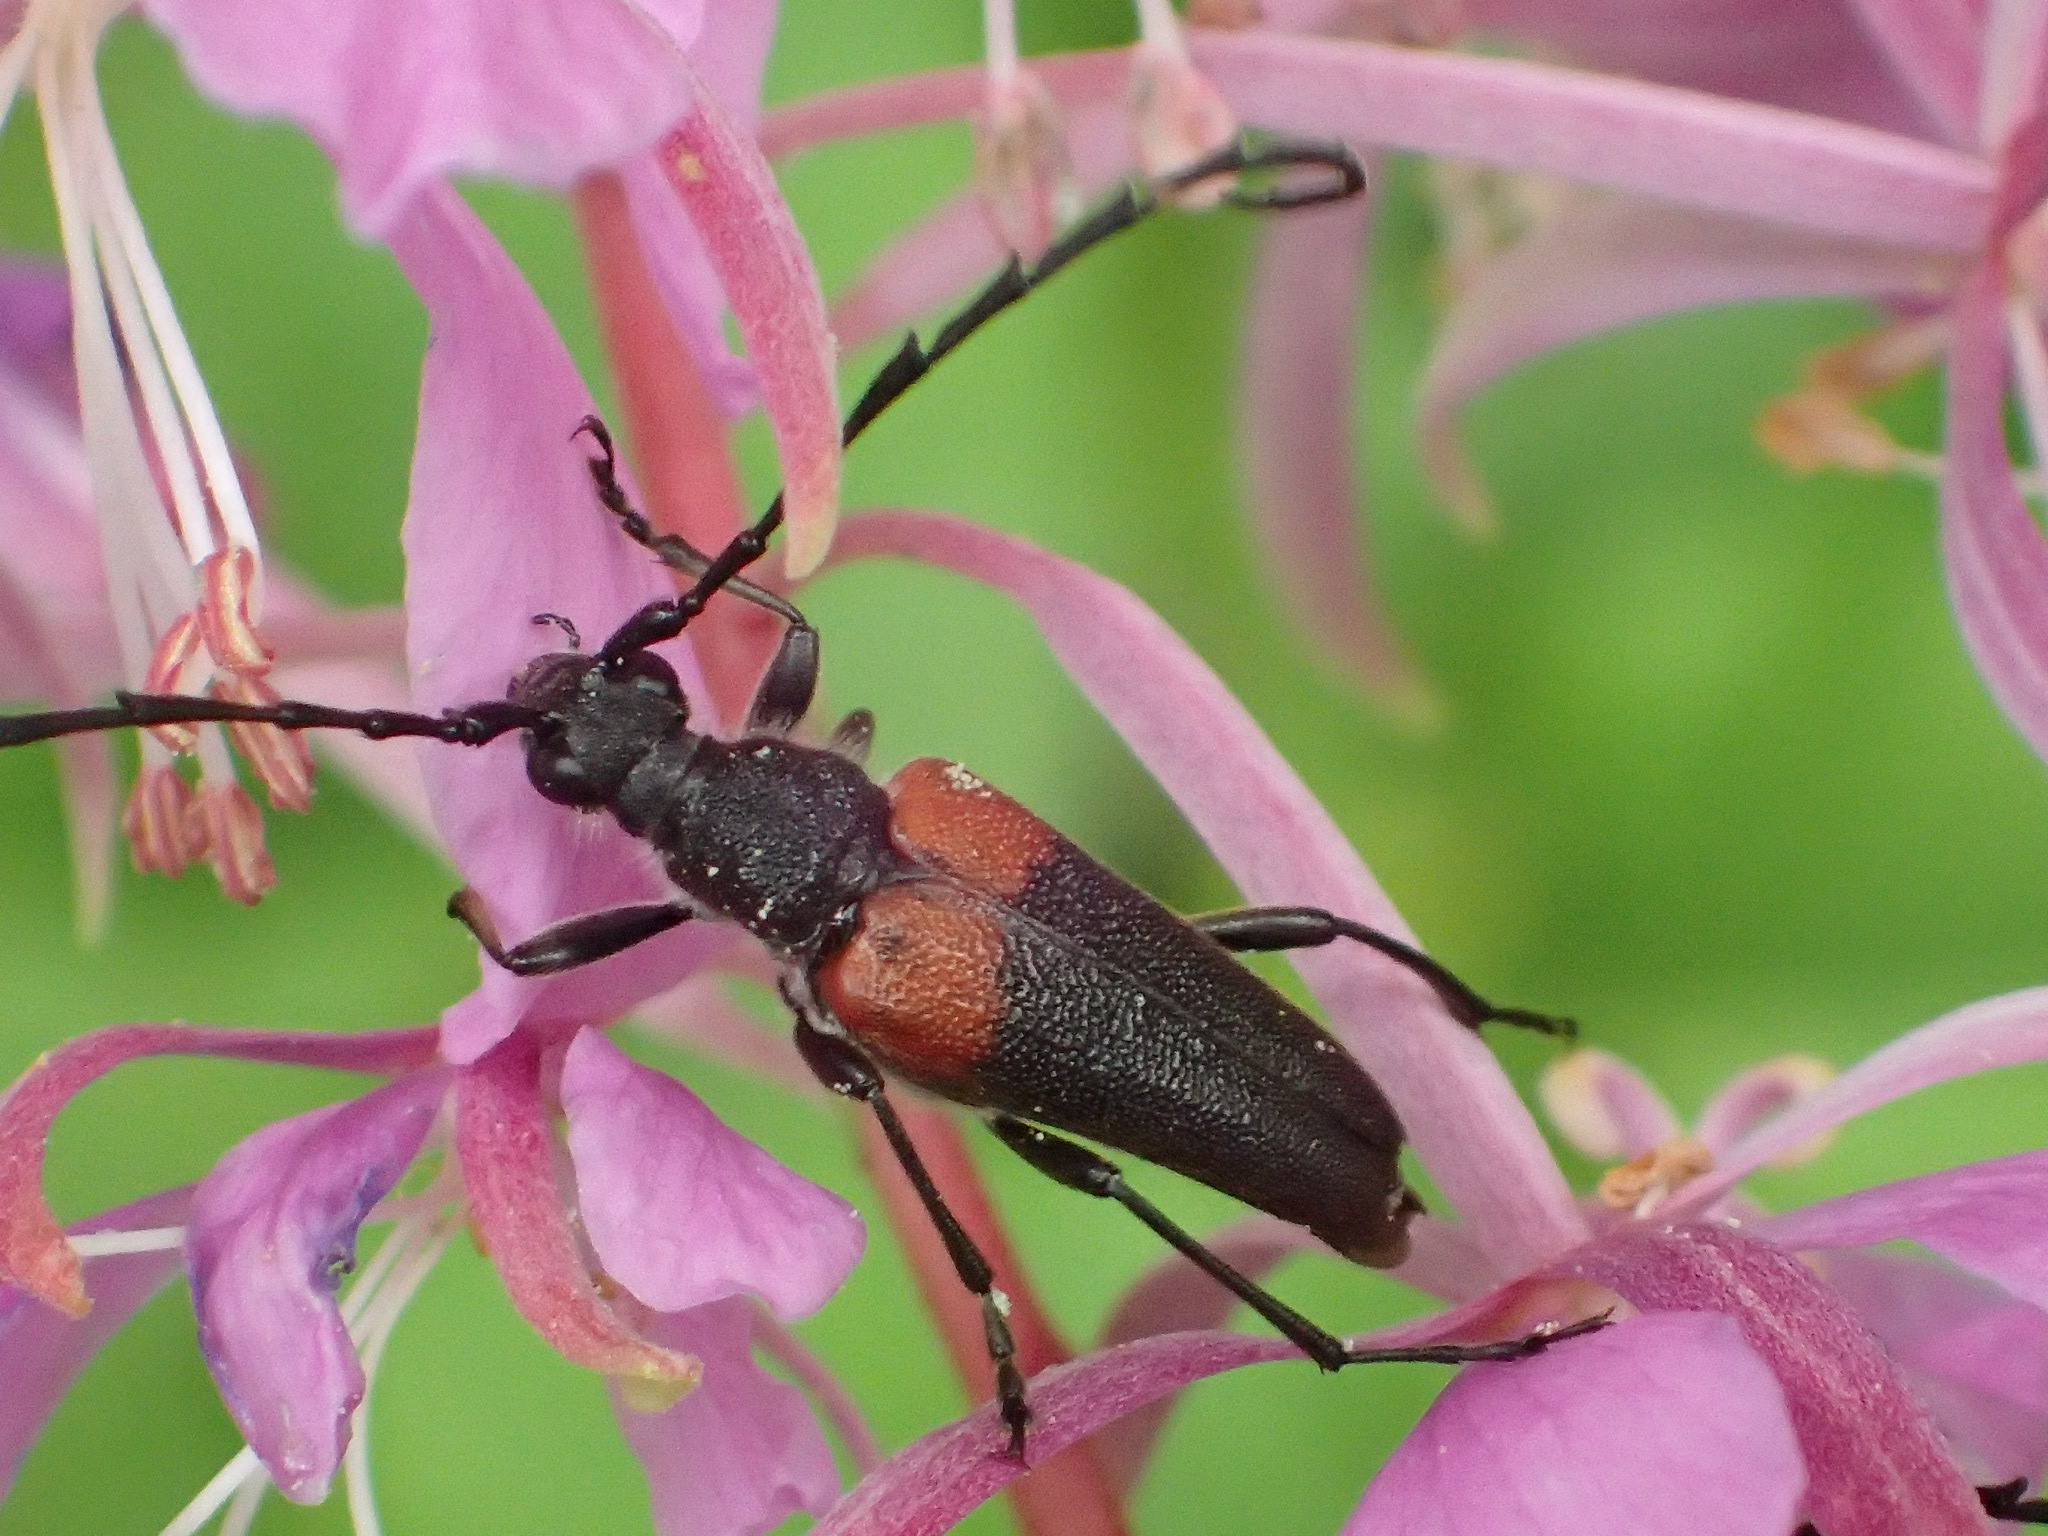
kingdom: Animalia
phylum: Arthropoda
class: Insecta
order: Coleoptera
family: Cerambycidae
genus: Stictoleptura
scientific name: Stictoleptura canadensis
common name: Red-shouldered pine borer
